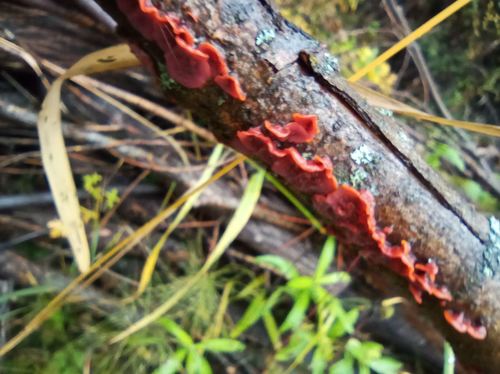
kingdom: Fungi
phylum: Basidiomycota
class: Agaricomycetes
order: Corticiales
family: Vuilleminiaceae
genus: Cytidia
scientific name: Cytidia salicina
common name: Scarlet splash
